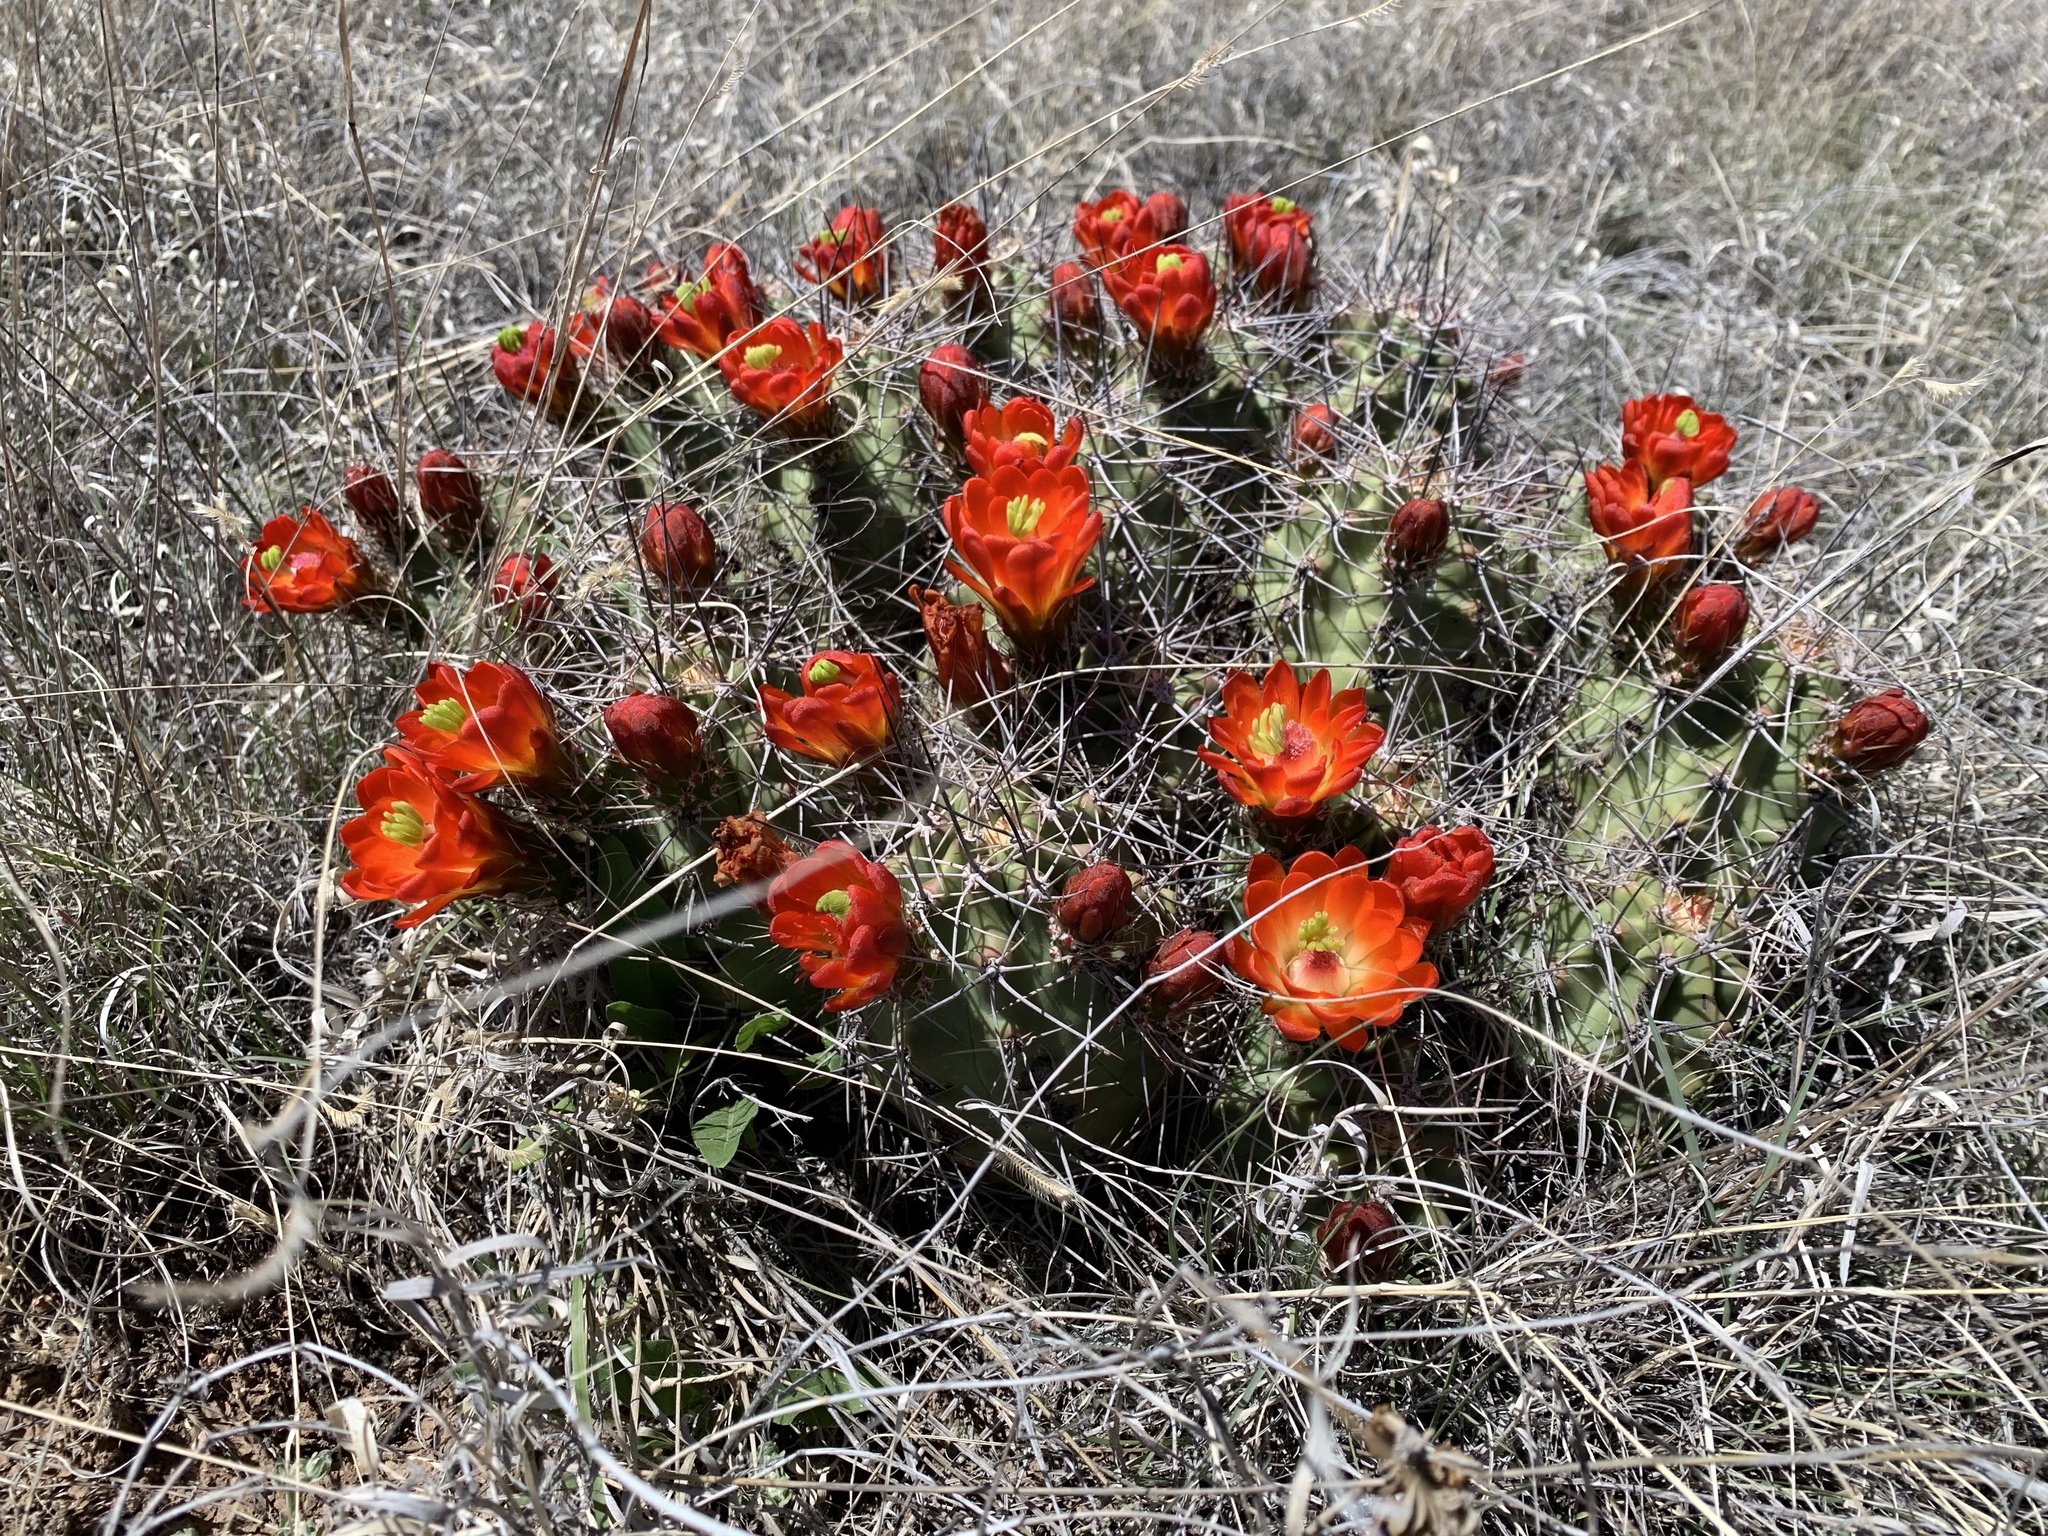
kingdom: Plantae
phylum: Tracheophyta
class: Magnoliopsida
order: Caryophyllales
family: Cactaceae
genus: Echinocereus
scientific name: Echinocereus coccineus
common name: Scarlet hedgehog cactus
